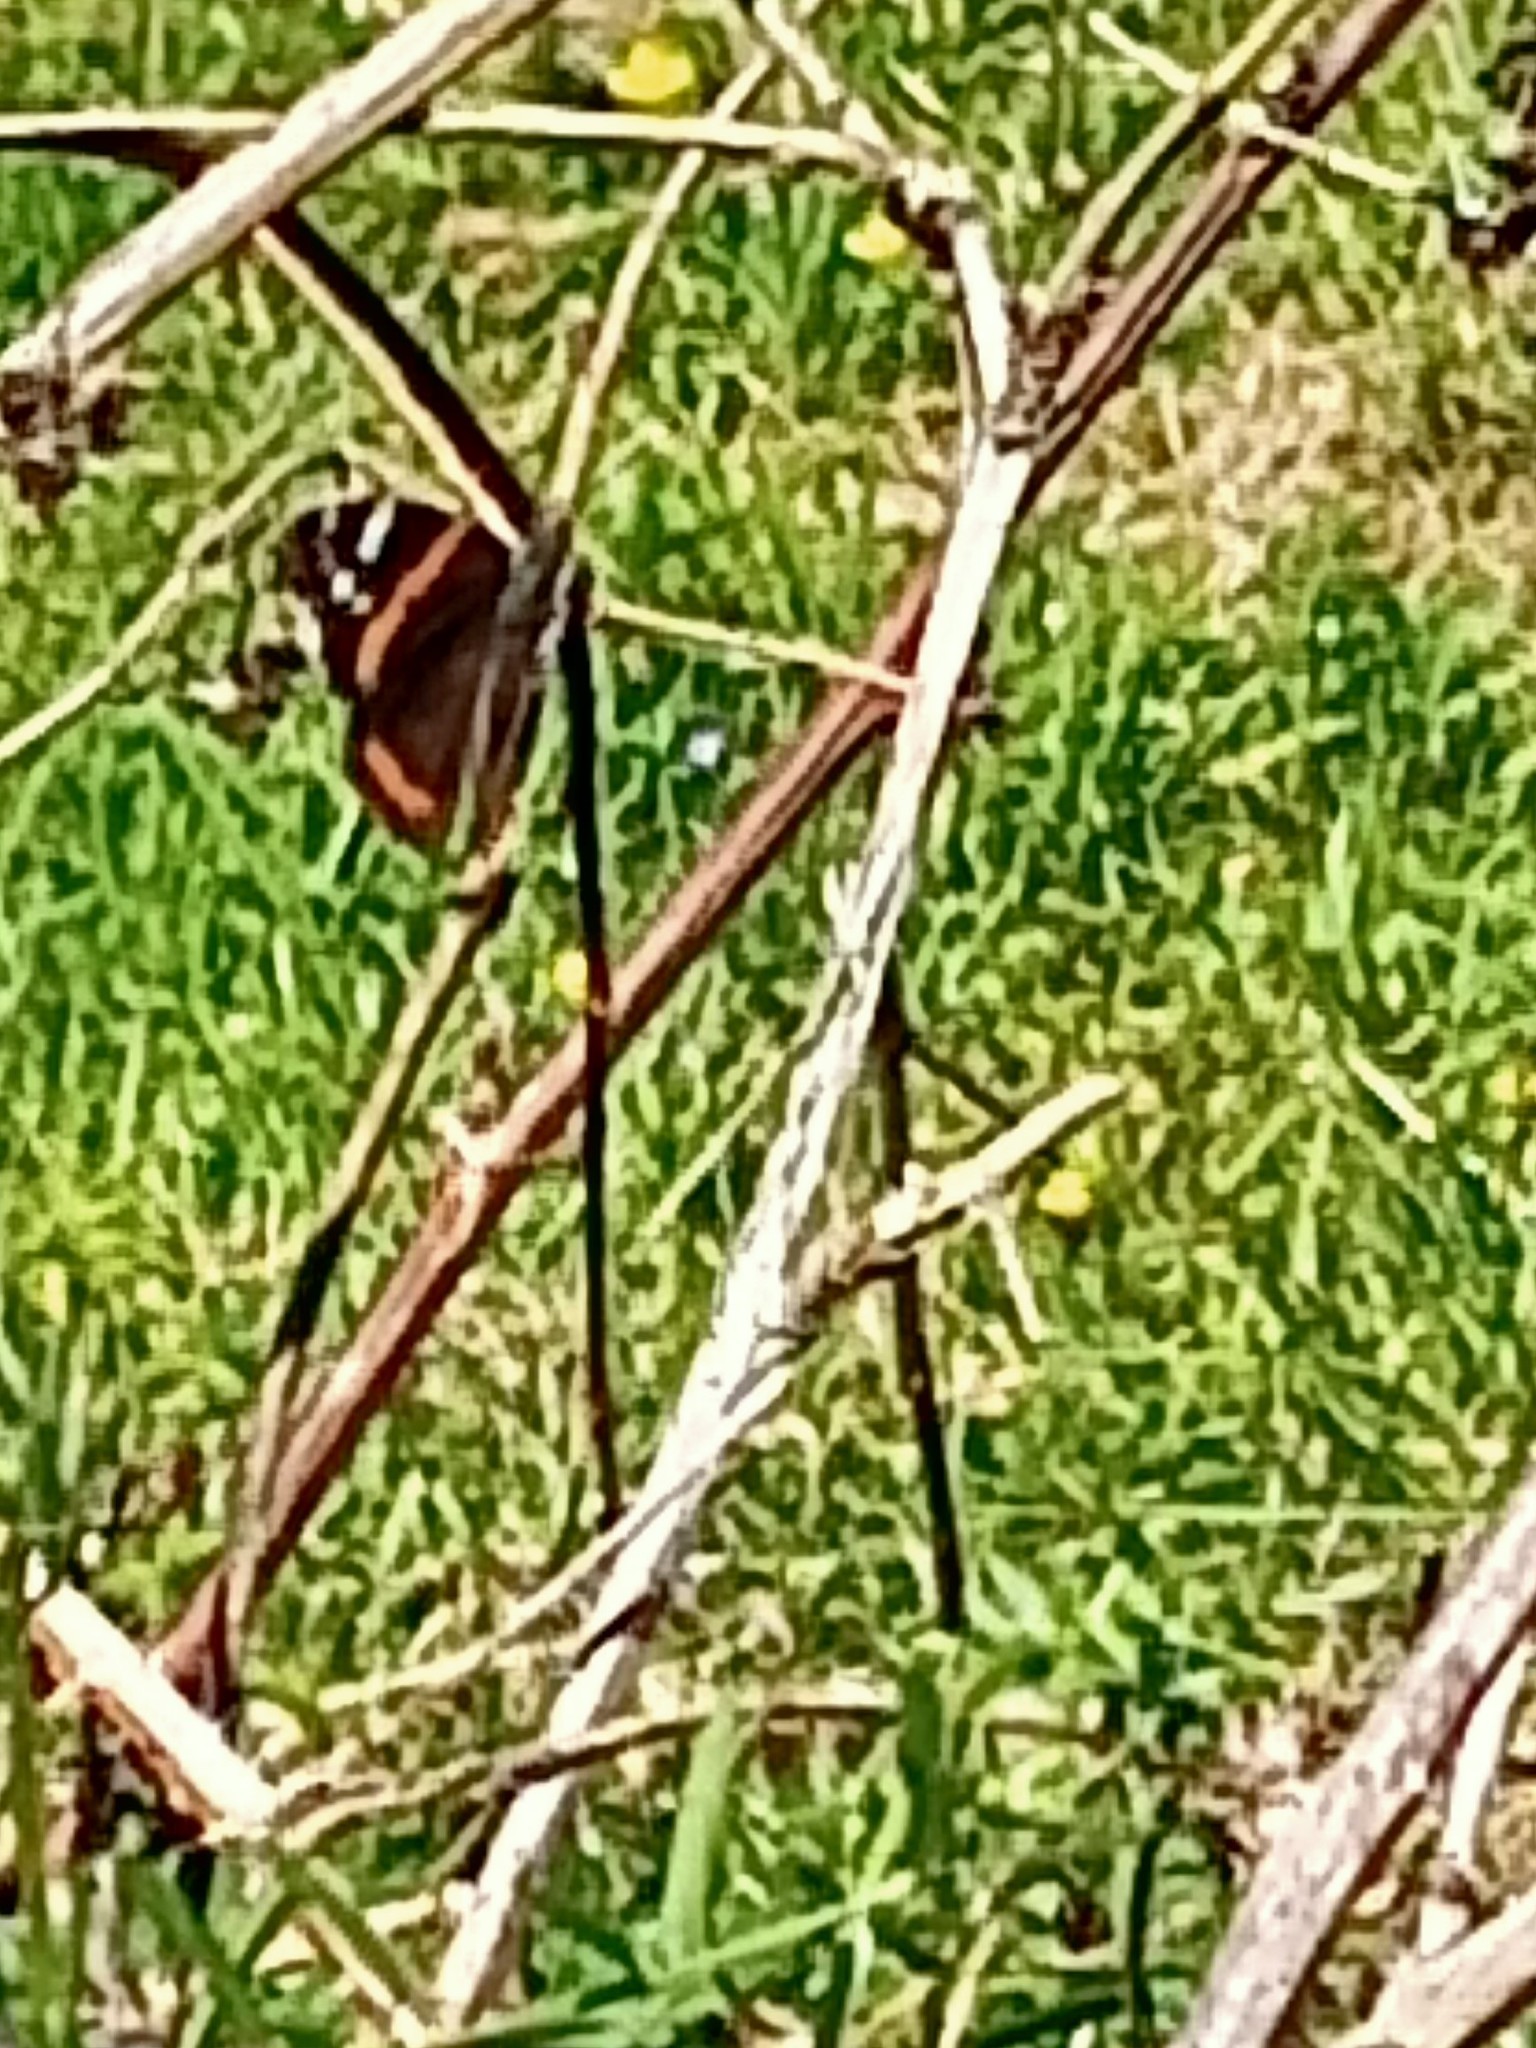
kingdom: Animalia
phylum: Arthropoda
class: Insecta
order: Lepidoptera
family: Nymphalidae
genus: Vanessa
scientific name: Vanessa atalanta
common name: Red admiral
